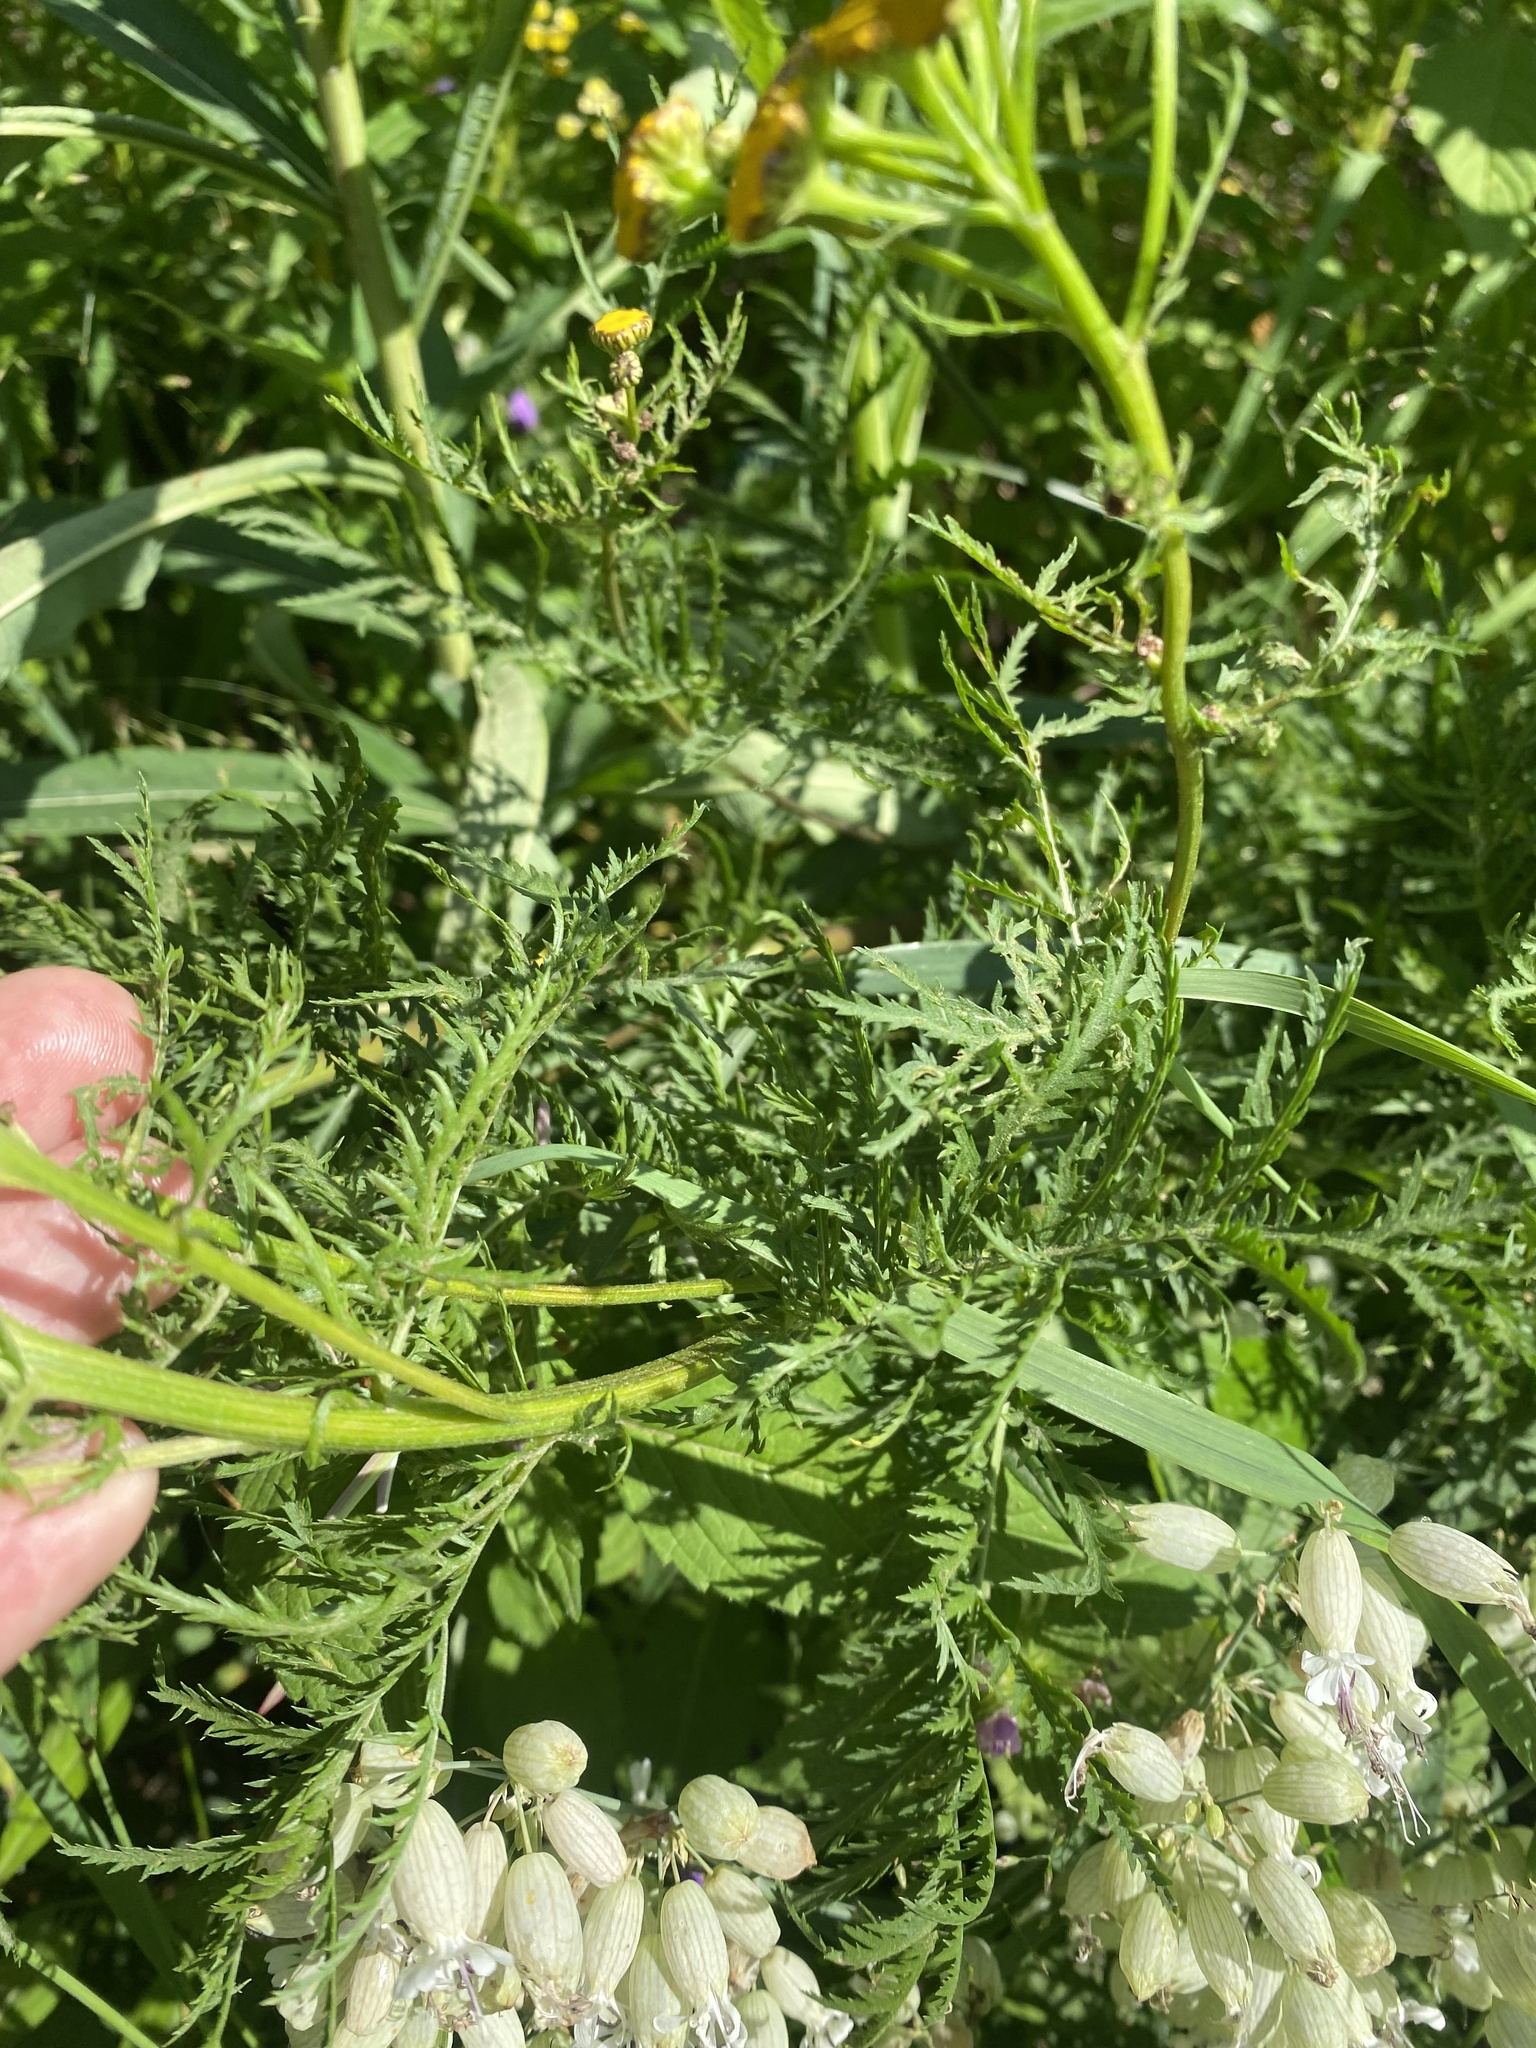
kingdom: Plantae
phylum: Tracheophyta
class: Magnoliopsida
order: Asterales
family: Asteraceae
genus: Tanacetum
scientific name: Tanacetum vulgare
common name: Common tansy
